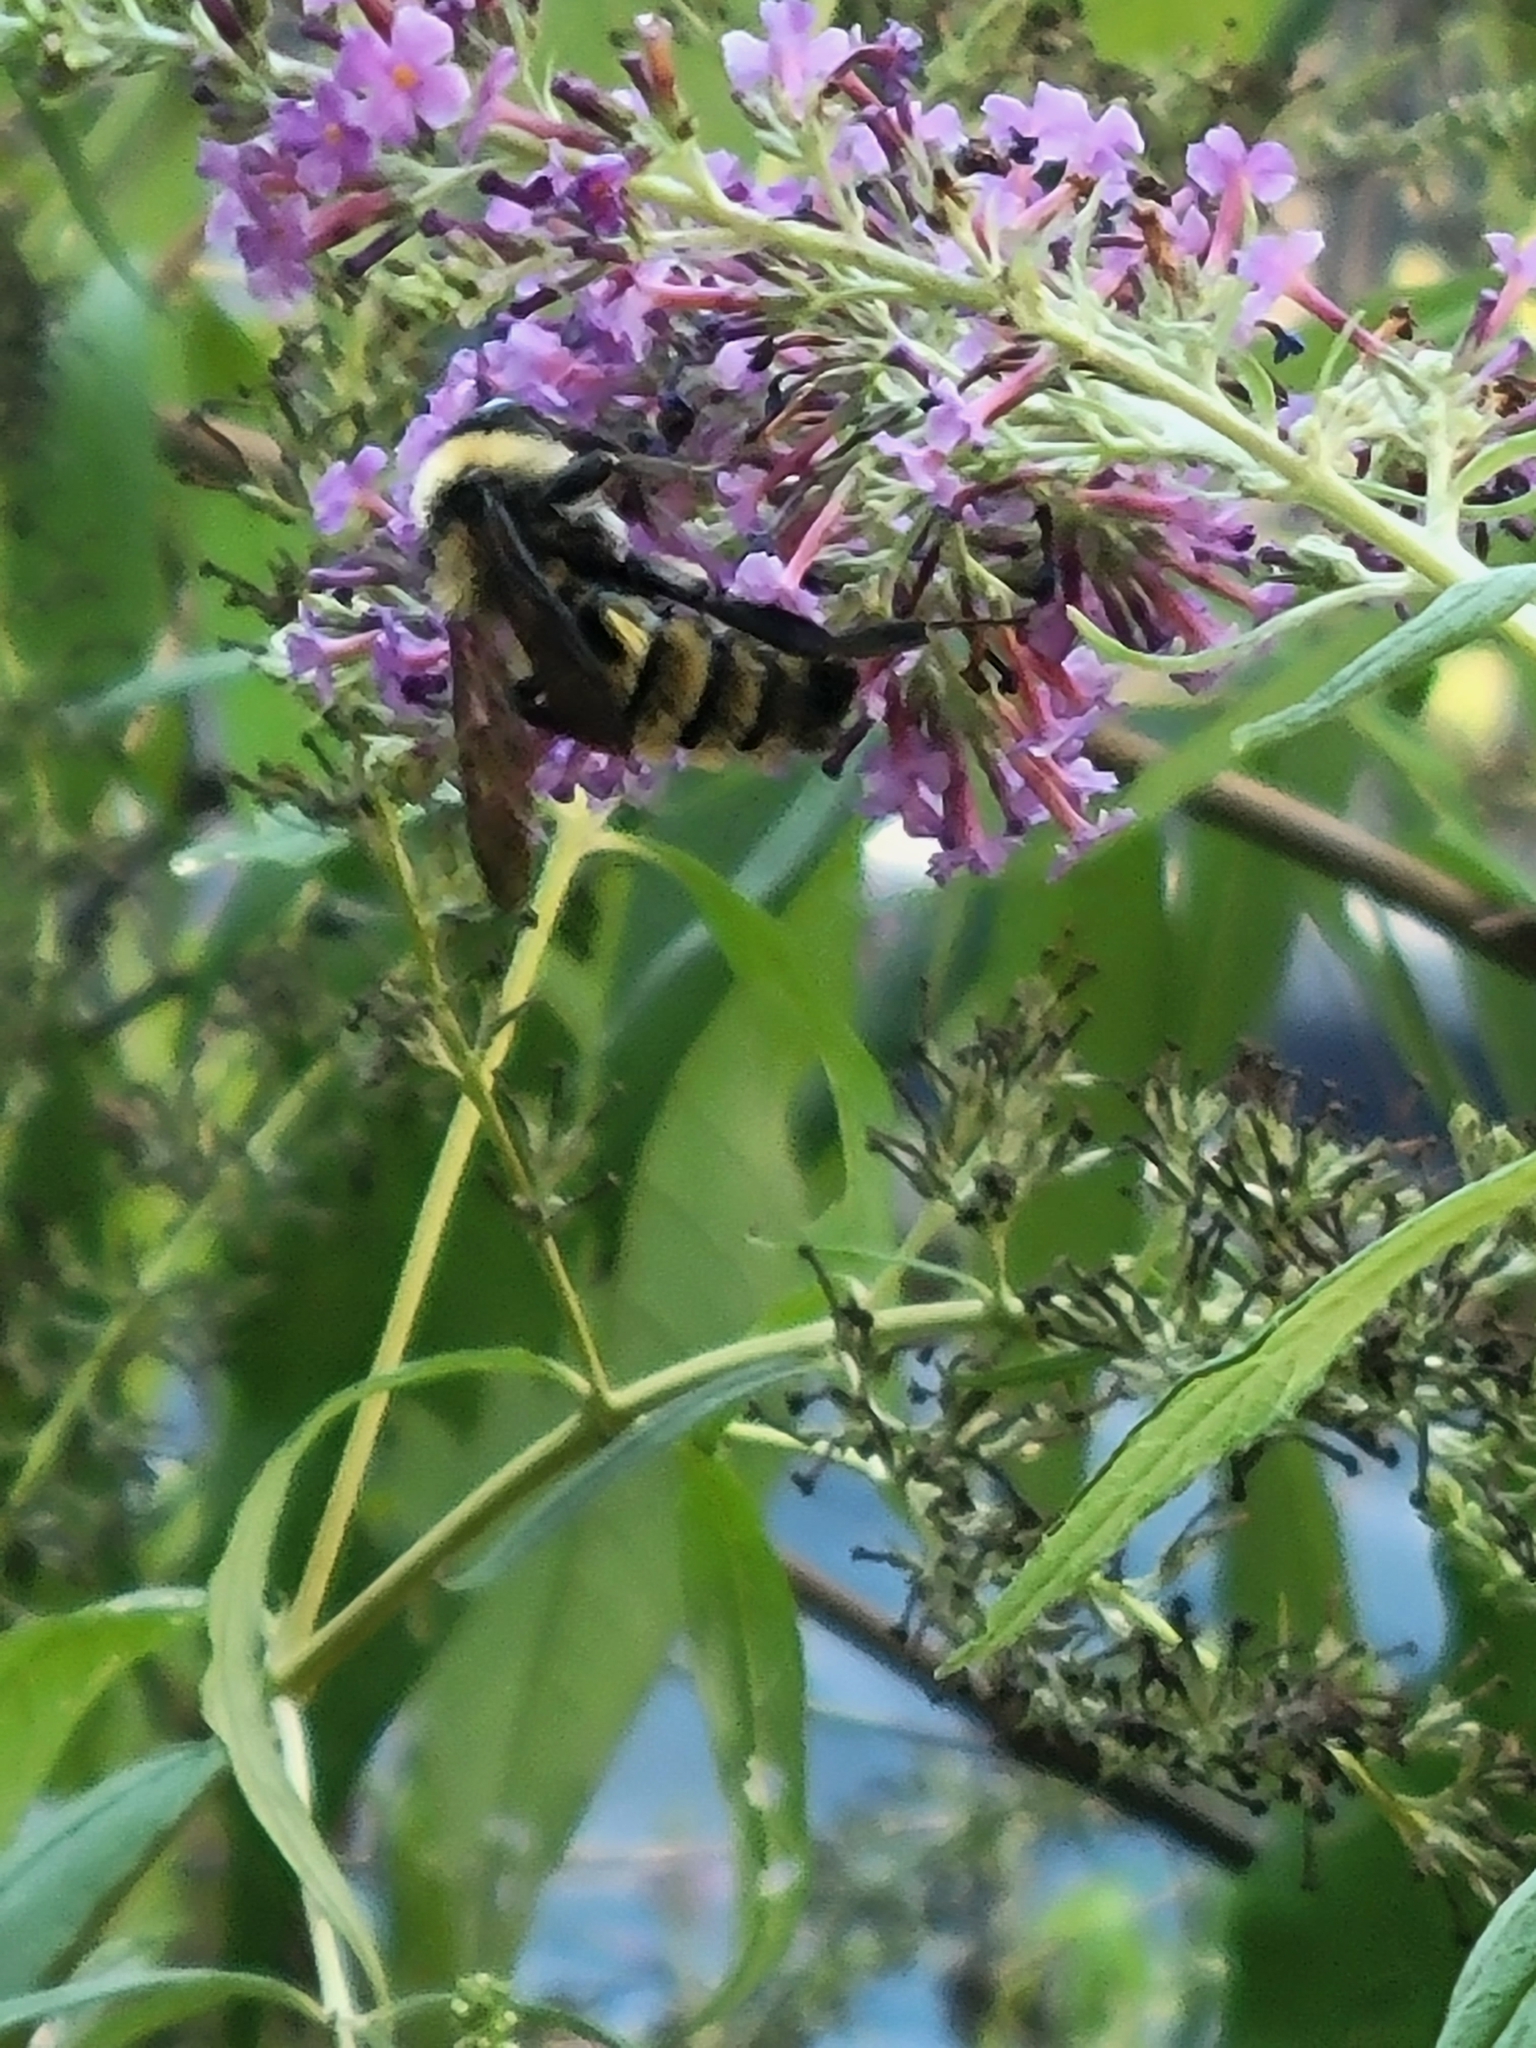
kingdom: Animalia
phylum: Arthropoda
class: Insecta
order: Hymenoptera
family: Apidae
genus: Bombus
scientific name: Bombus pensylvanicus
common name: Bumble bee
